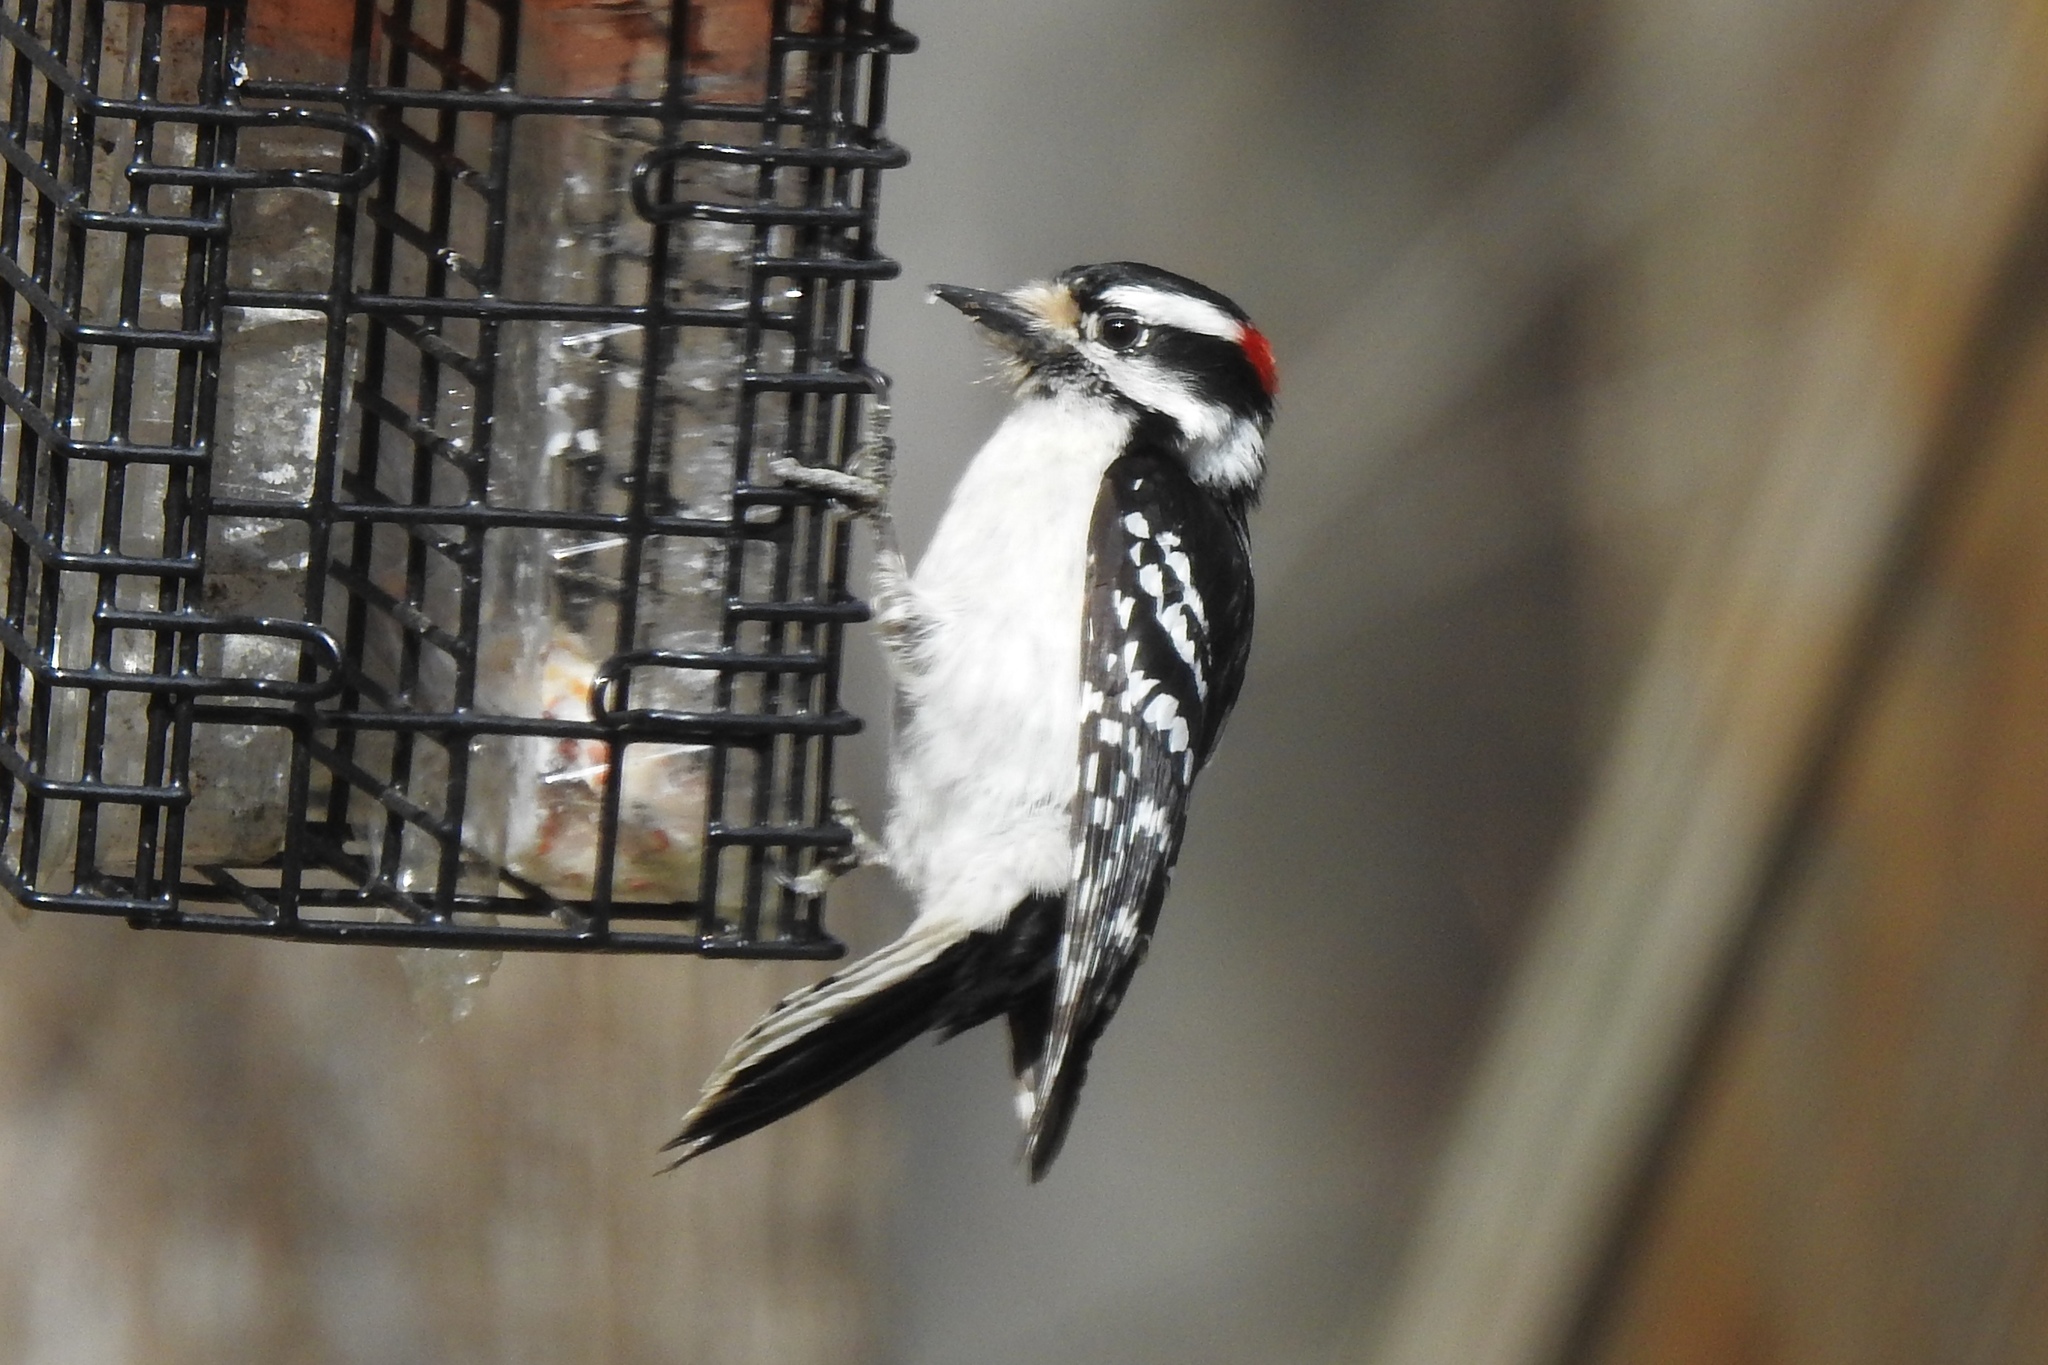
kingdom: Animalia
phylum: Chordata
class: Aves
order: Piciformes
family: Picidae
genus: Dryobates
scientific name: Dryobates pubescens
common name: Downy woodpecker
